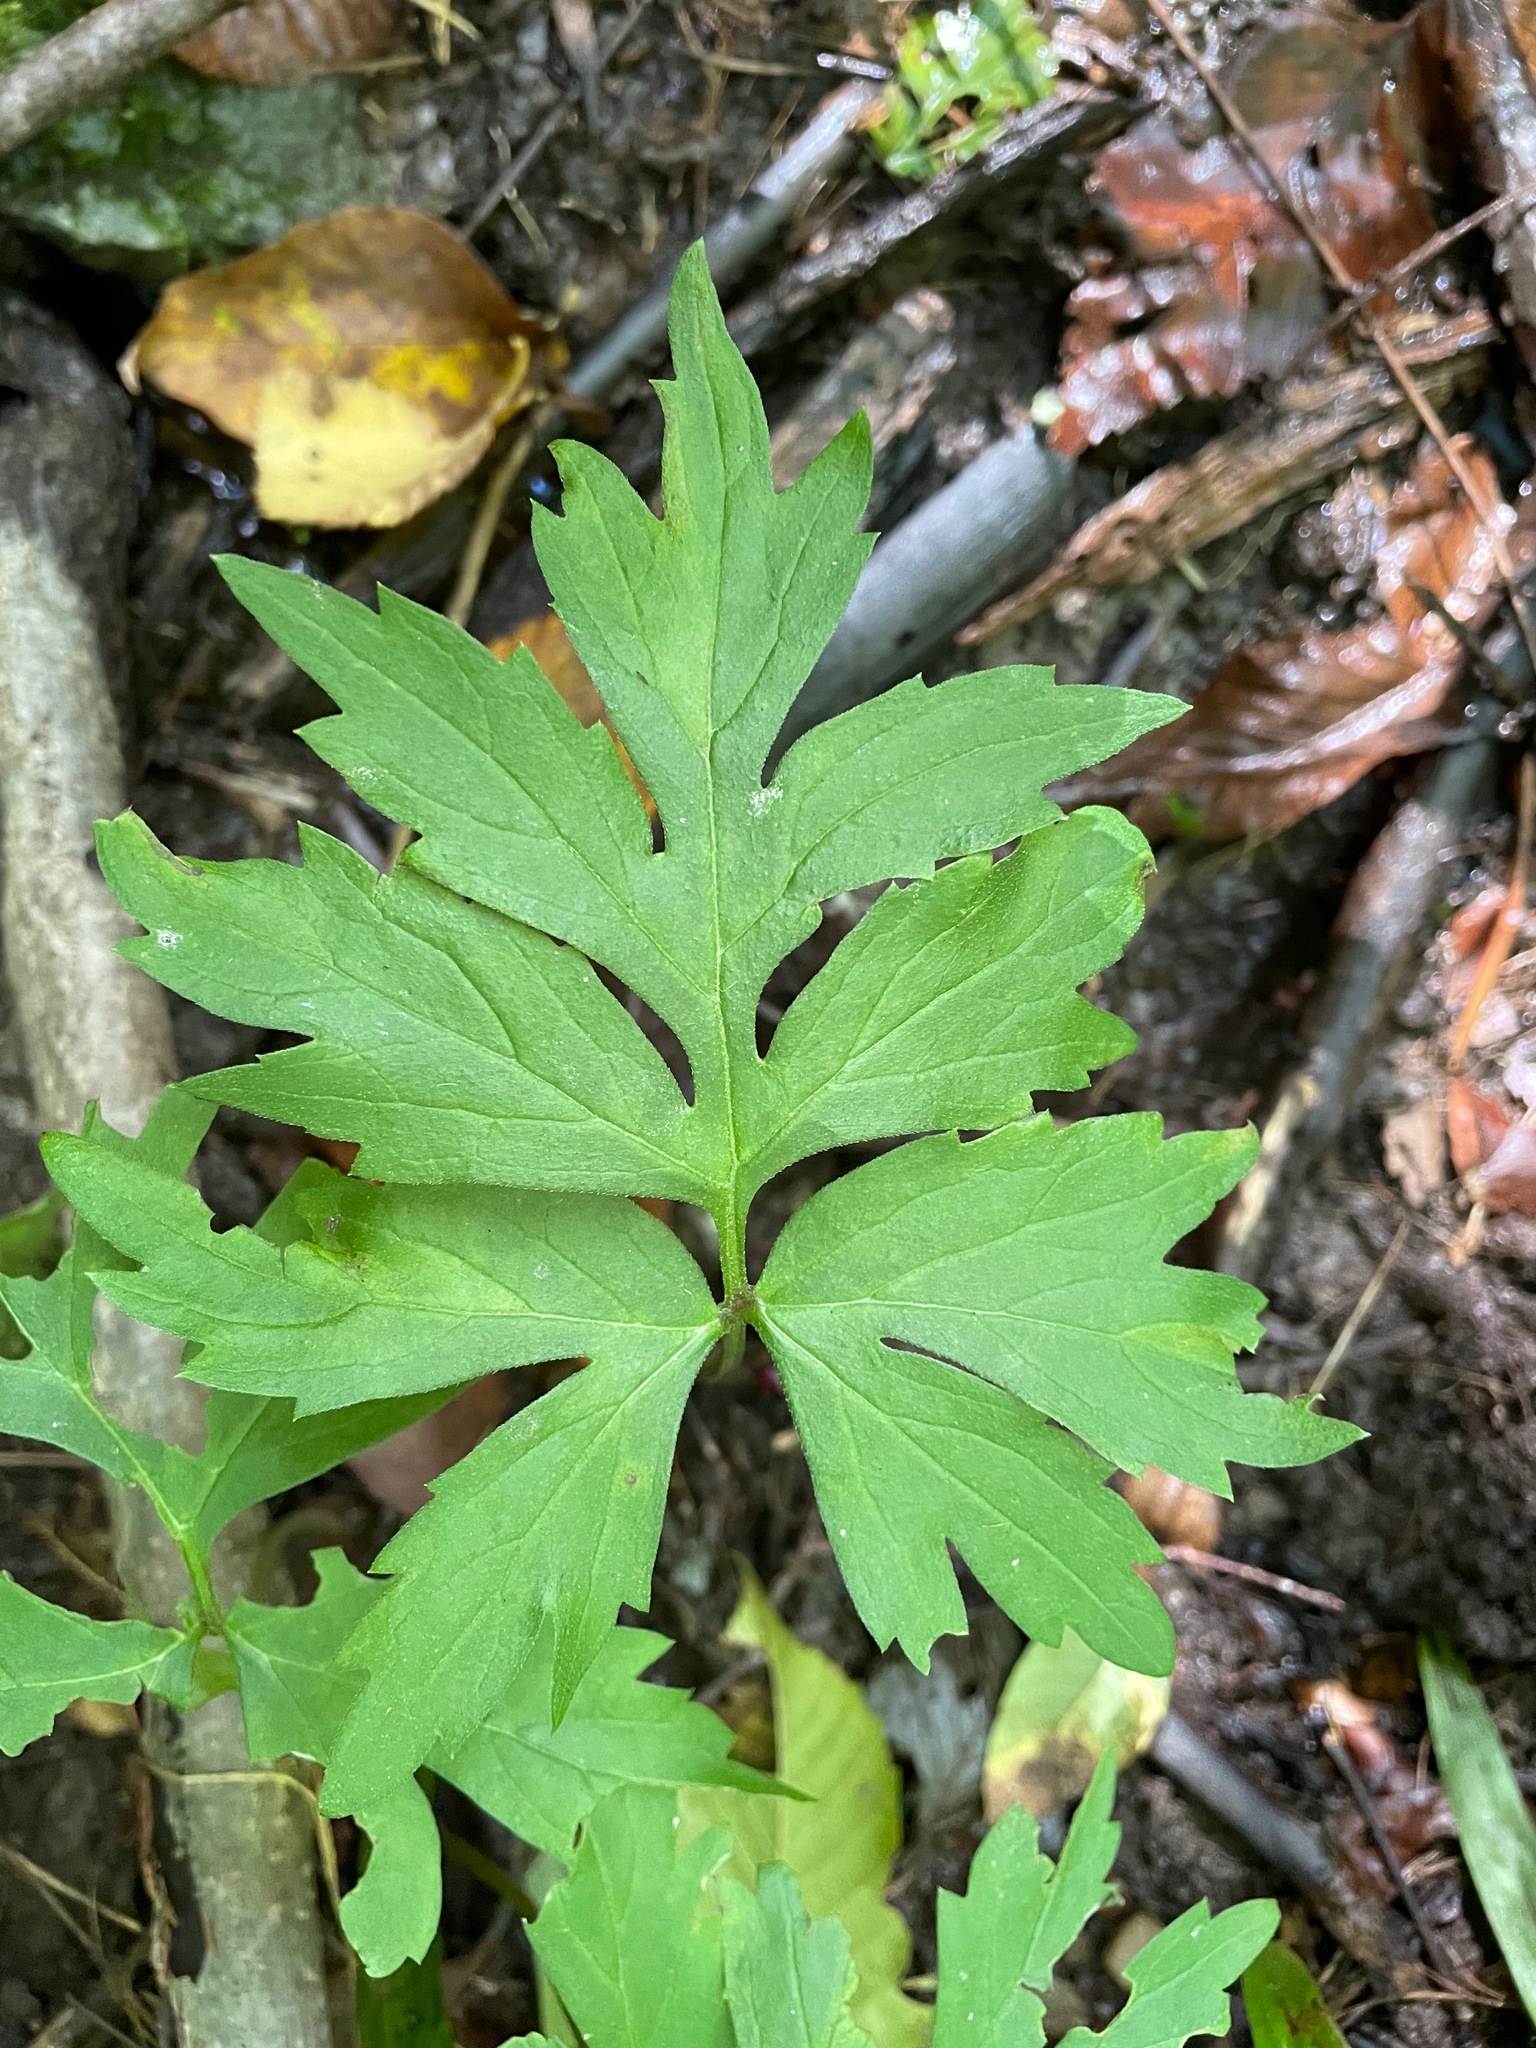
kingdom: Plantae
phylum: Tracheophyta
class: Magnoliopsida
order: Boraginales
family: Hydrophyllaceae
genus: Hydrophyllum
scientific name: Hydrophyllum virginianum
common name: Virginia waterleaf
